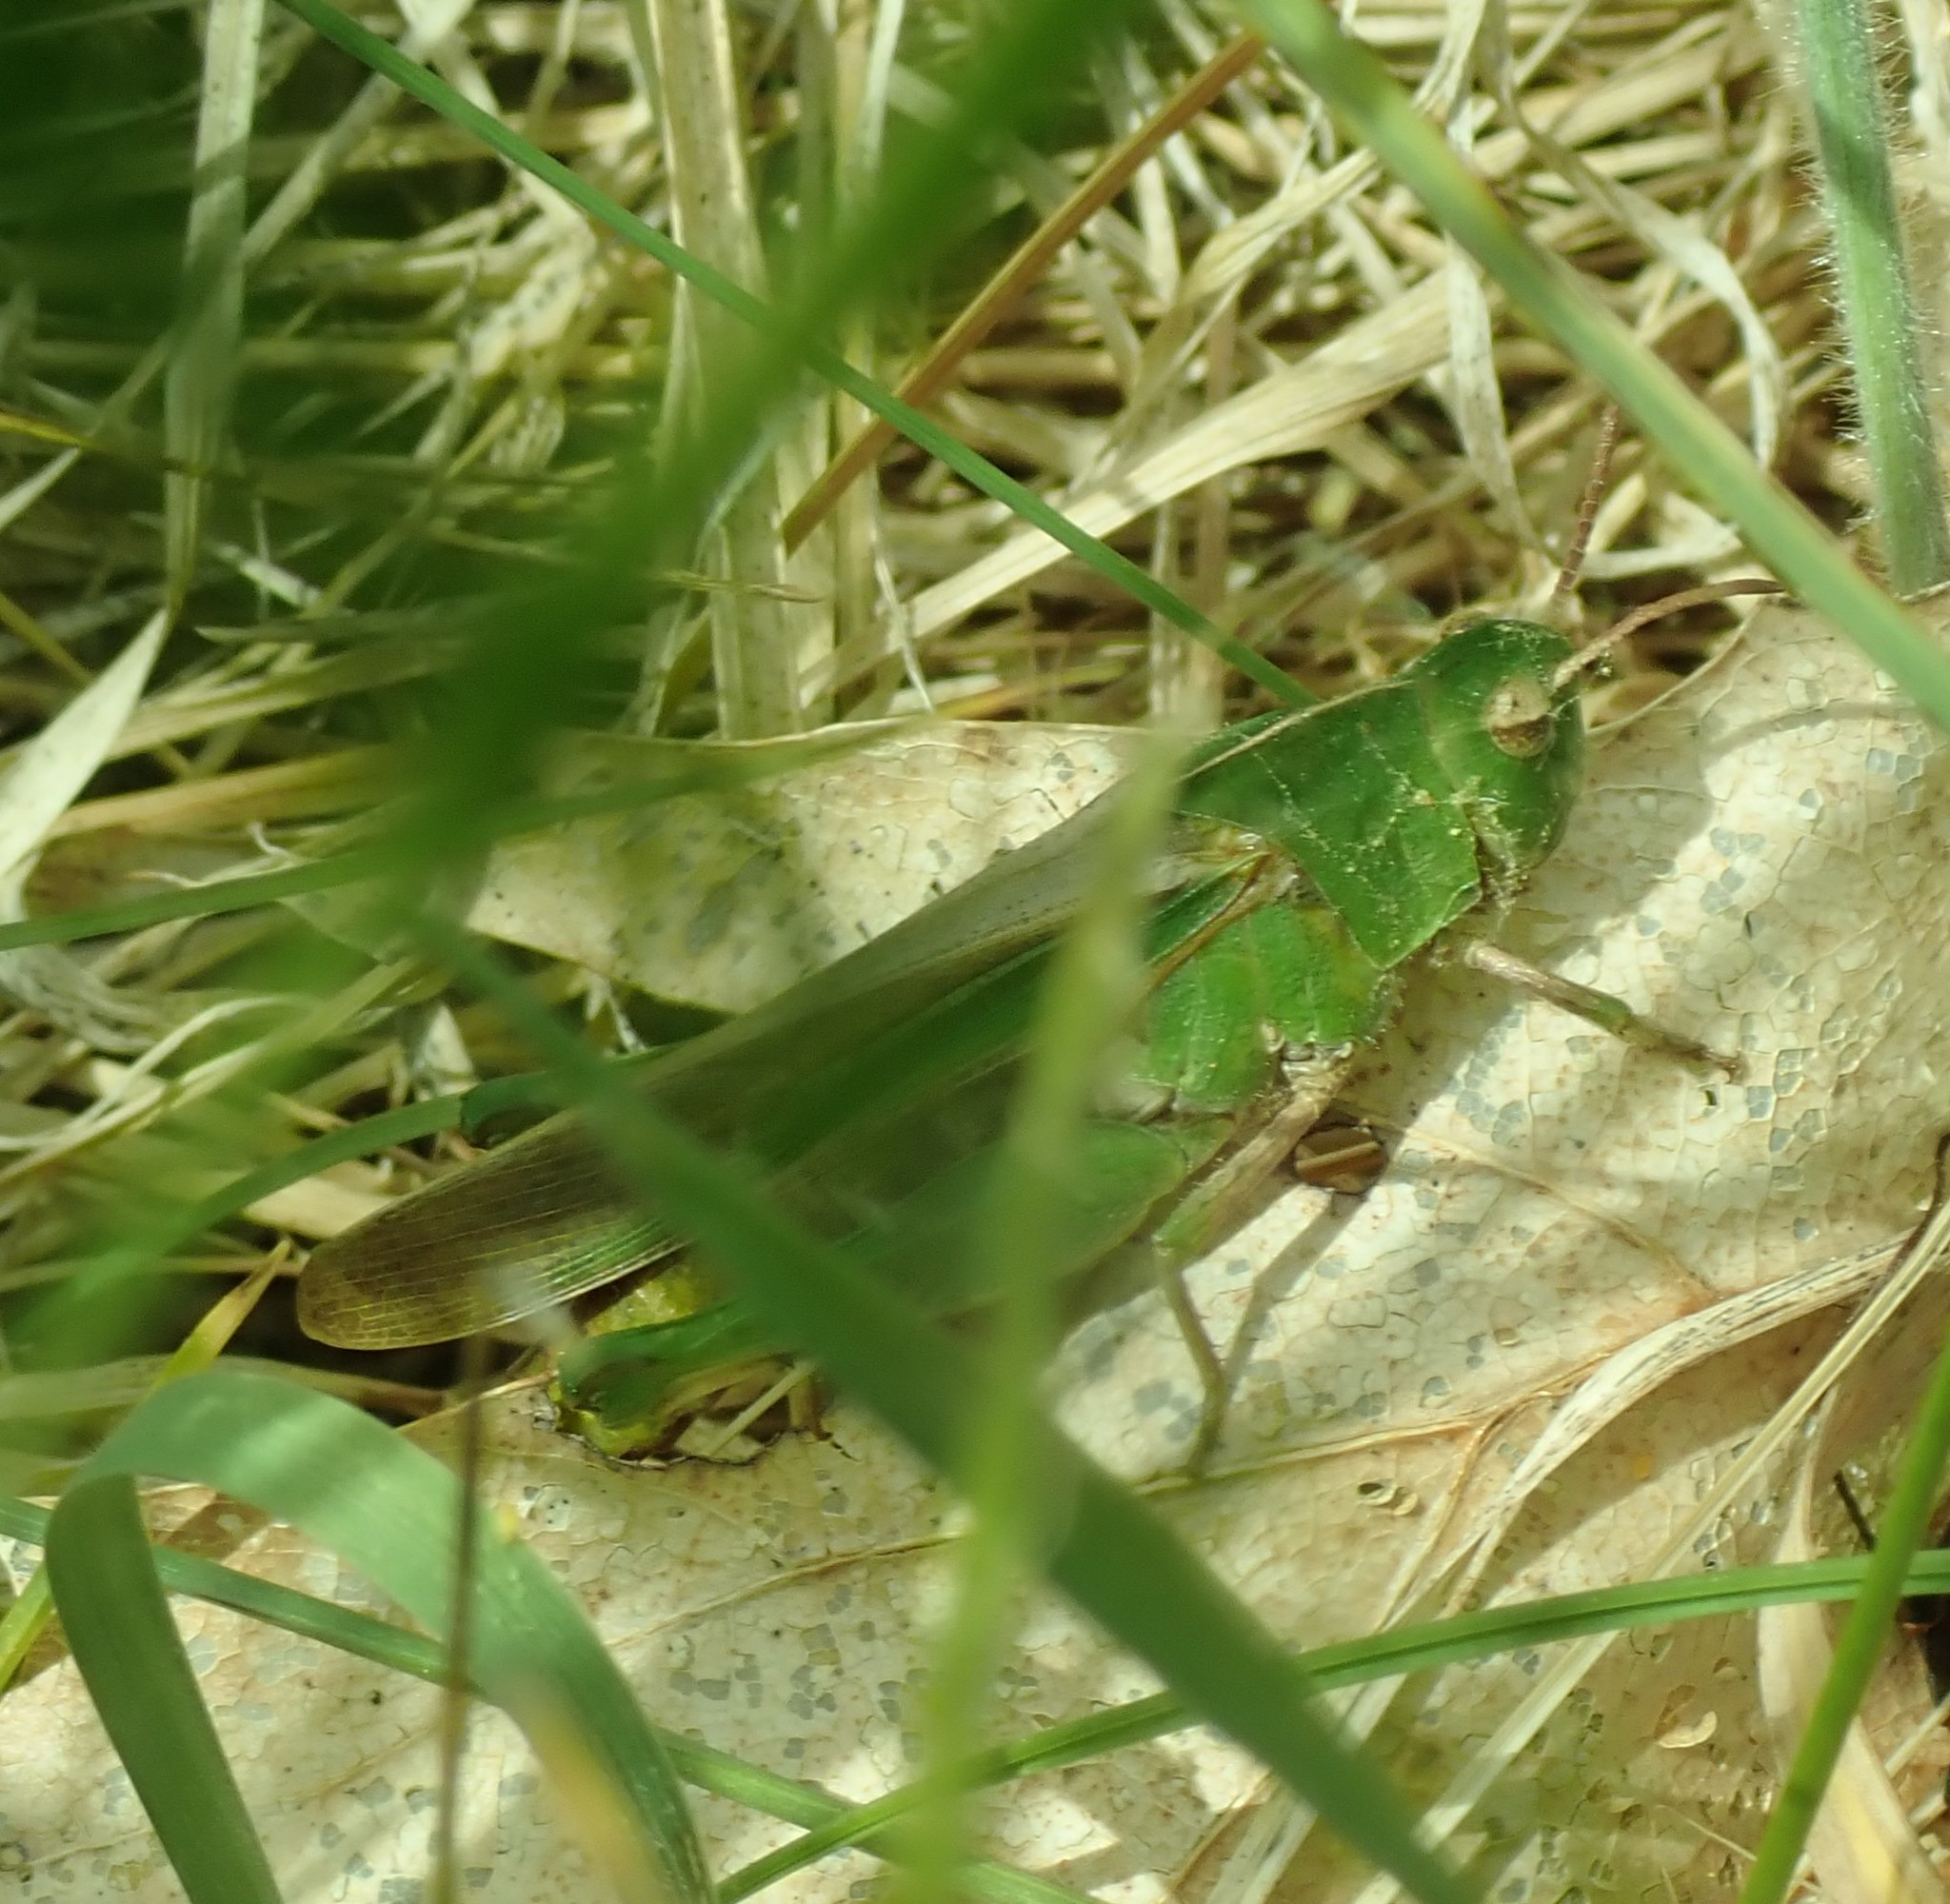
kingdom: Animalia
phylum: Arthropoda
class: Insecta
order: Orthoptera
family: Acrididae
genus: Chortophaga
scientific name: Chortophaga viridifasciata
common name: Green-striped grasshopper
